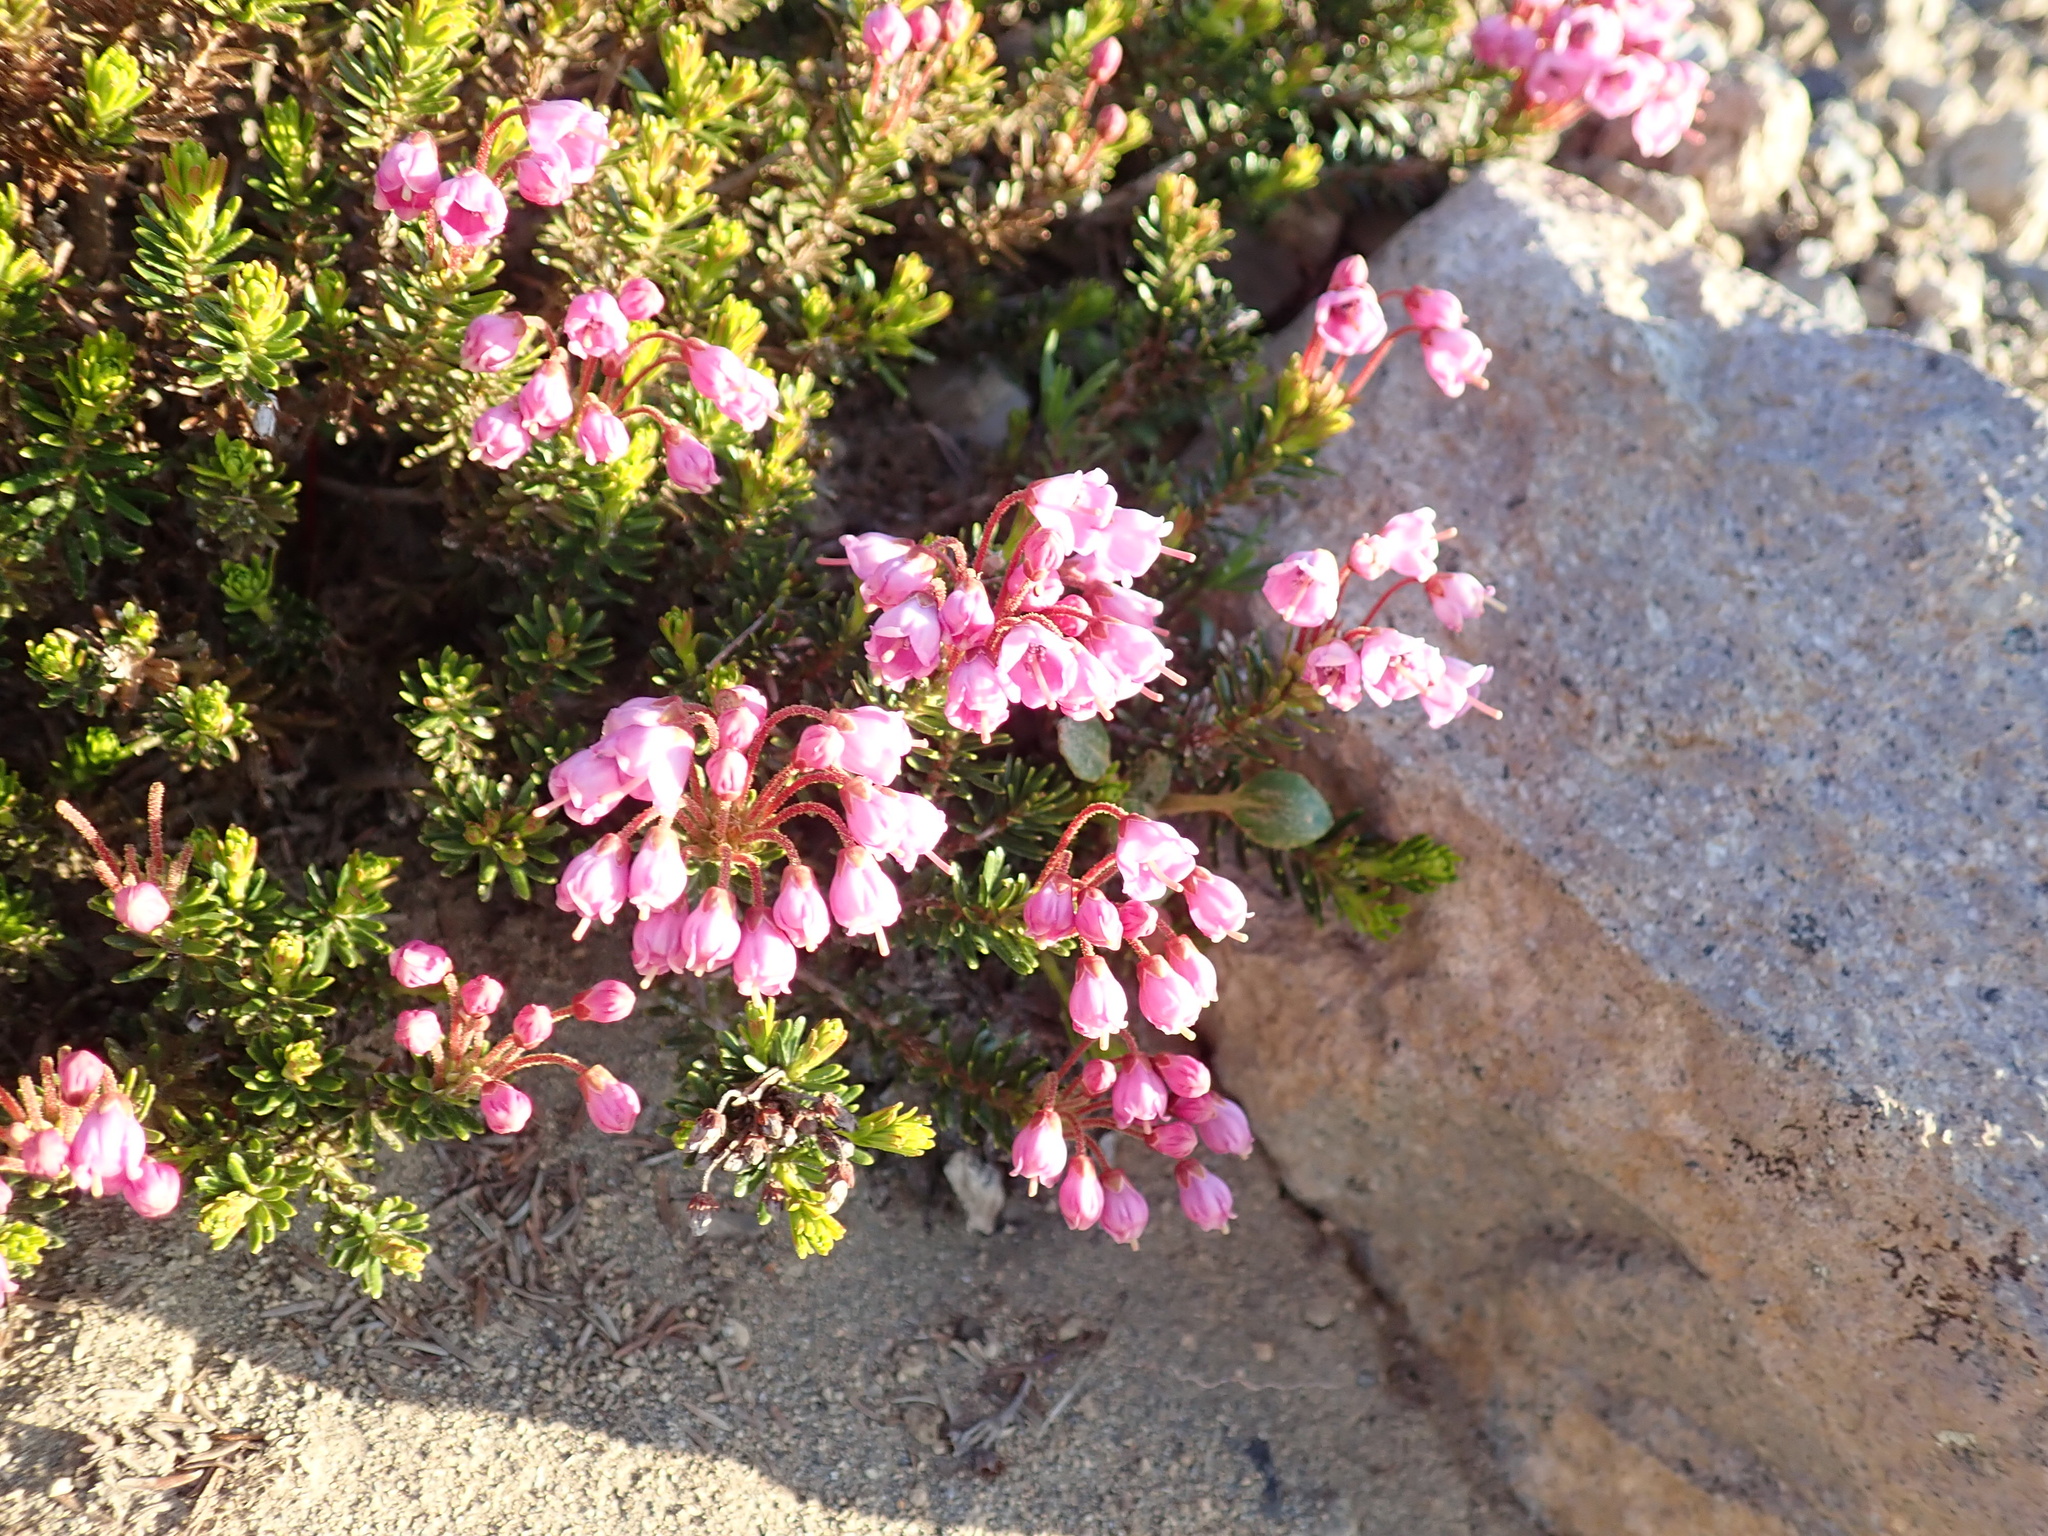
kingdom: Plantae
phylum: Tracheophyta
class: Magnoliopsida
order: Ericales
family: Ericaceae
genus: Phyllodoce
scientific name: Phyllodoce empetriformis
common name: Pink mountain heather
